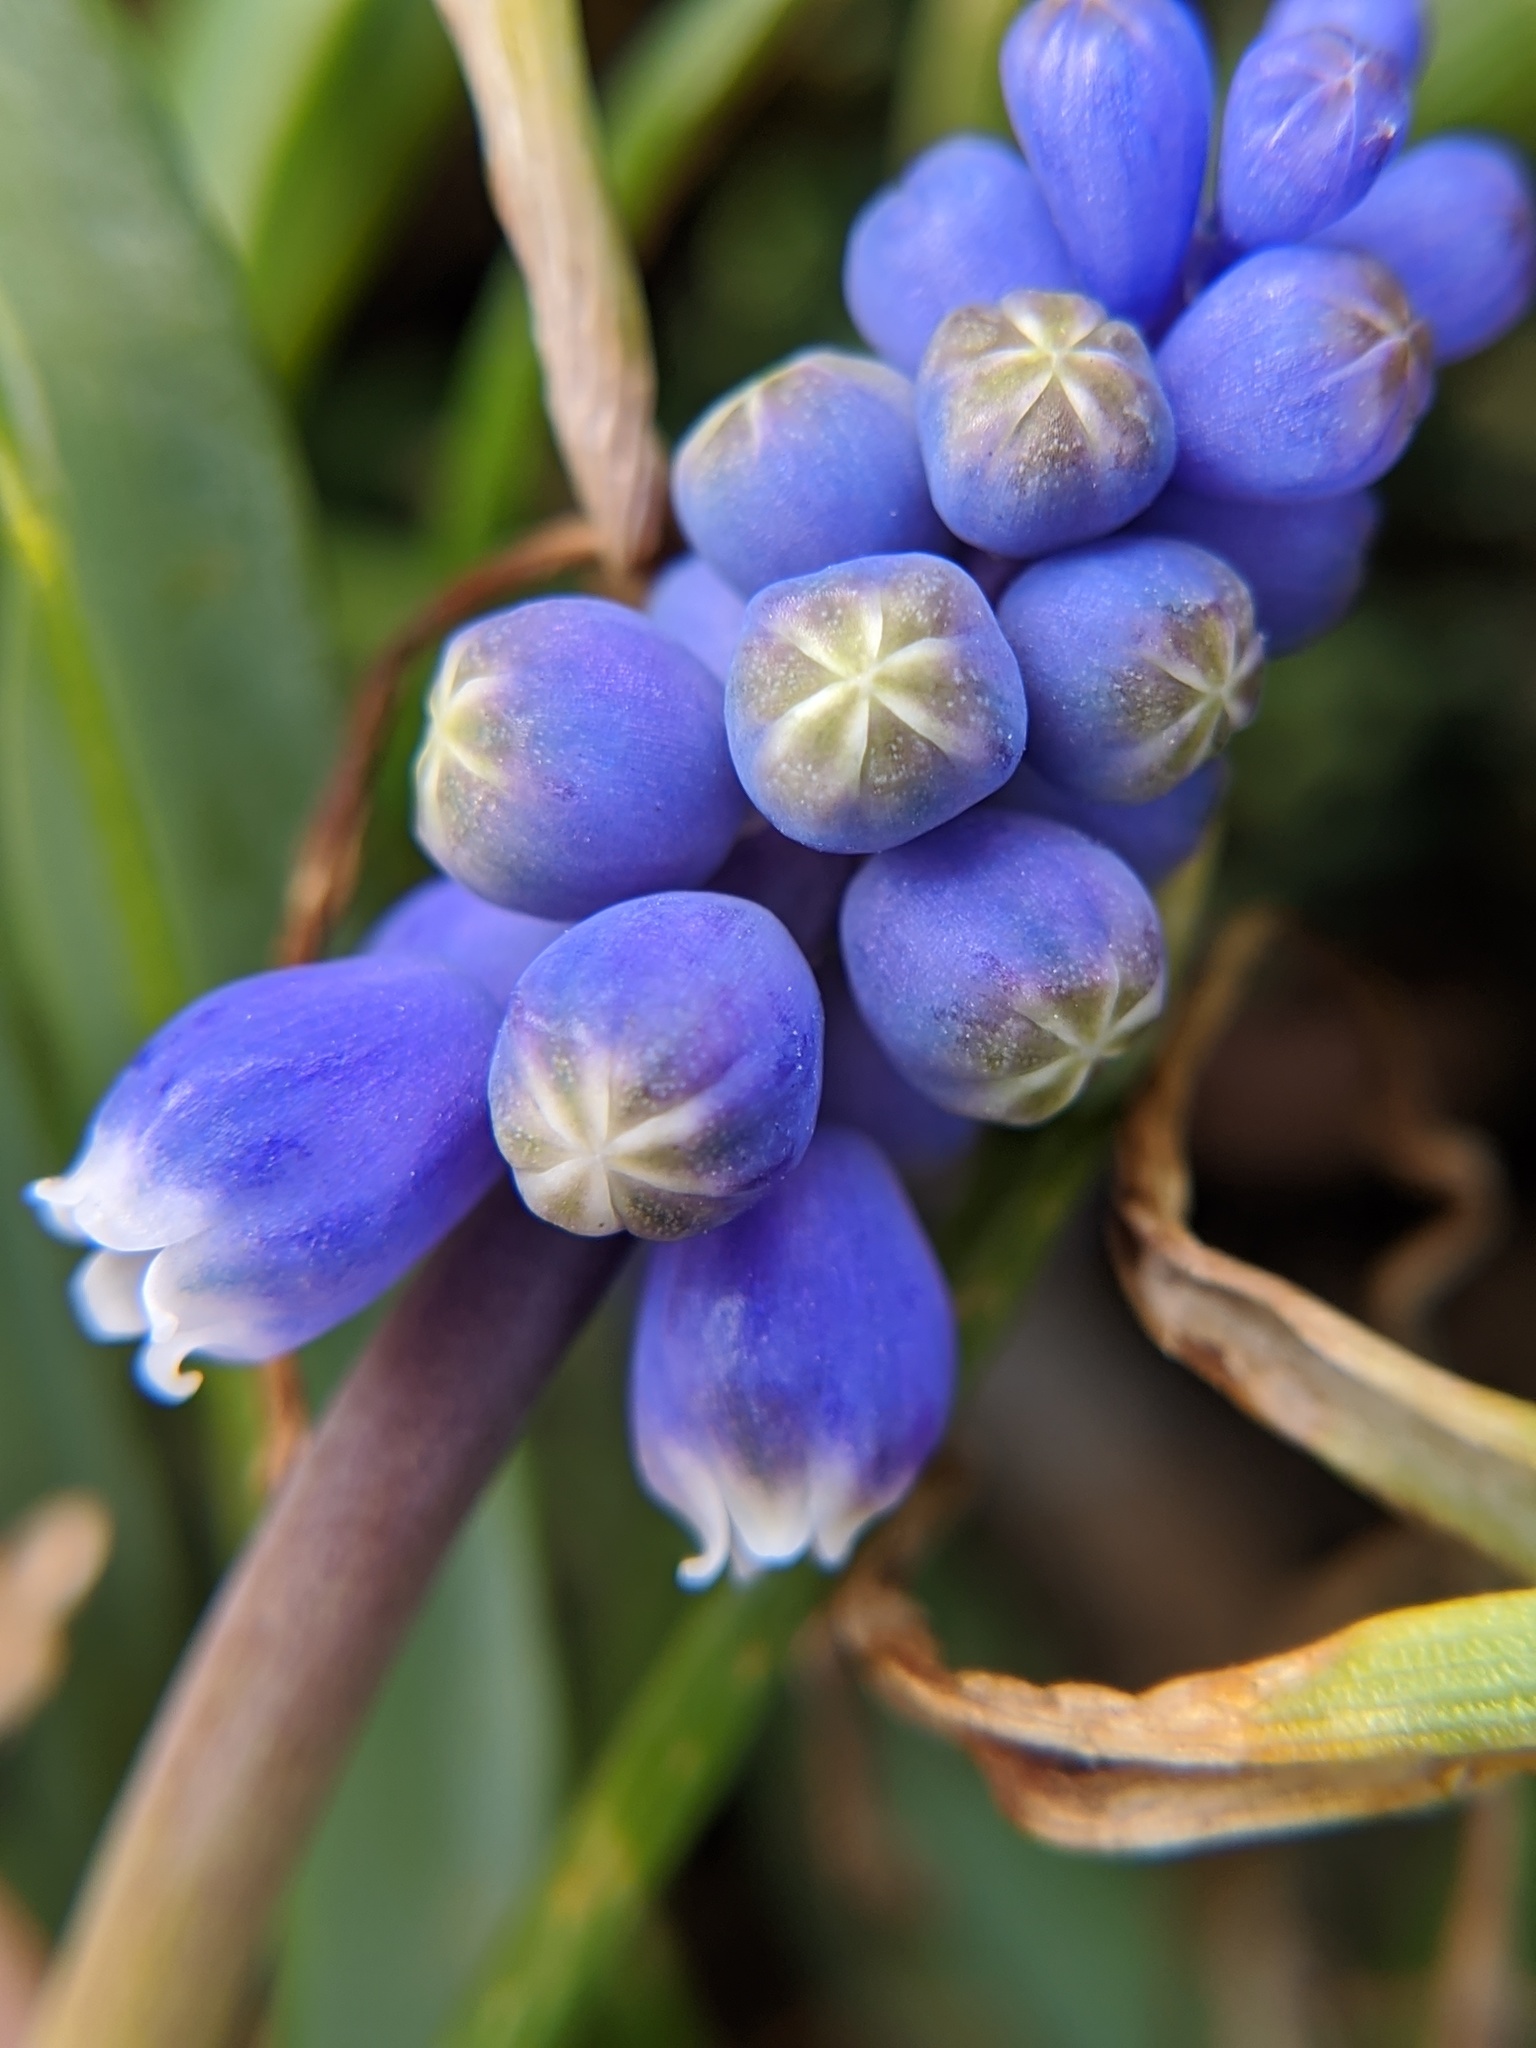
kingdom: Plantae
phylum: Tracheophyta
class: Liliopsida
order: Asparagales
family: Asparagaceae
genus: Muscari
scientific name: Muscari neglectum
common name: Grape-hyacinth
